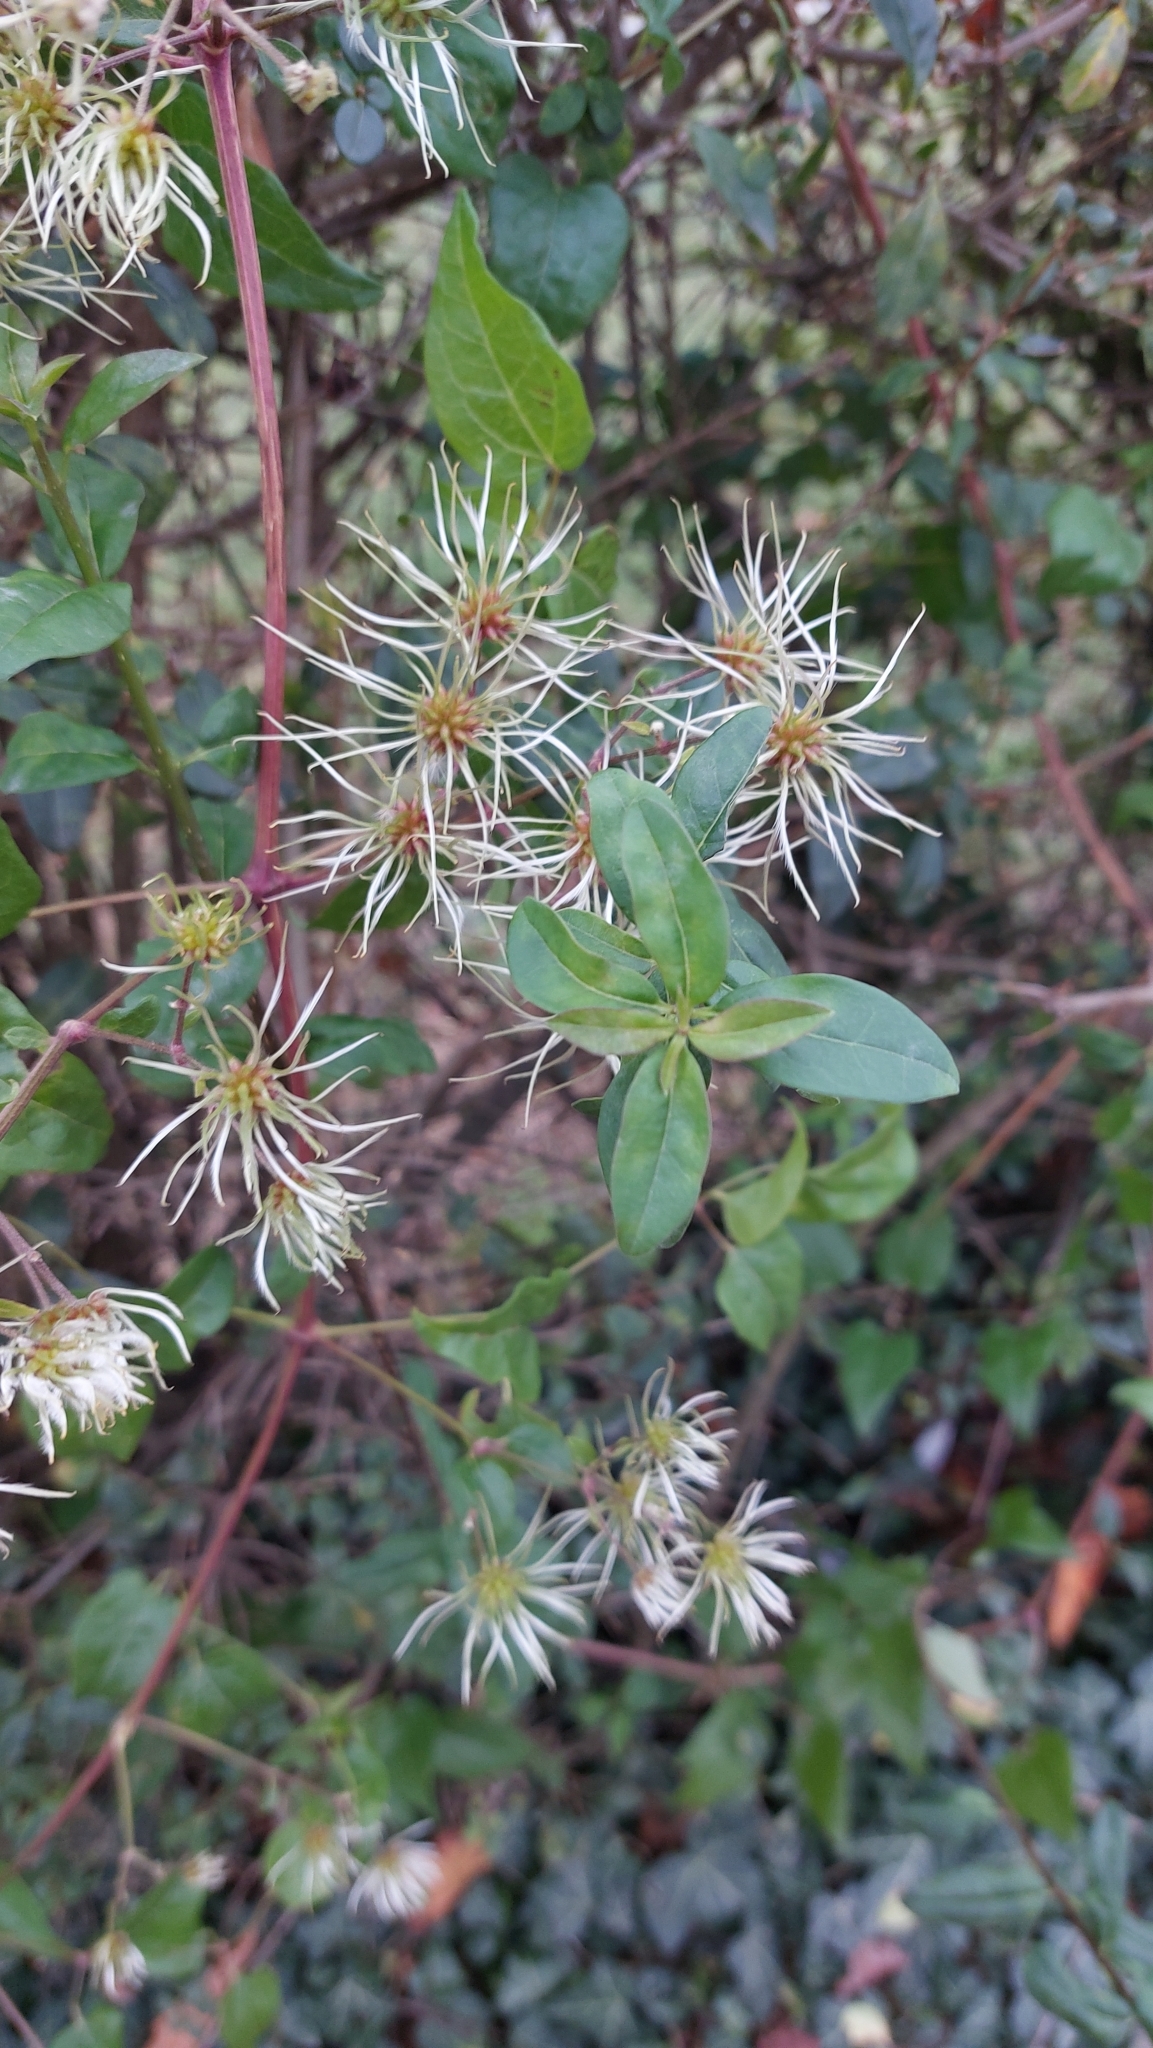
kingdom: Plantae
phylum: Tracheophyta
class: Magnoliopsida
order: Ranunculales
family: Ranunculaceae
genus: Clematis
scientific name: Clematis vitalba
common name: Evergreen clematis
